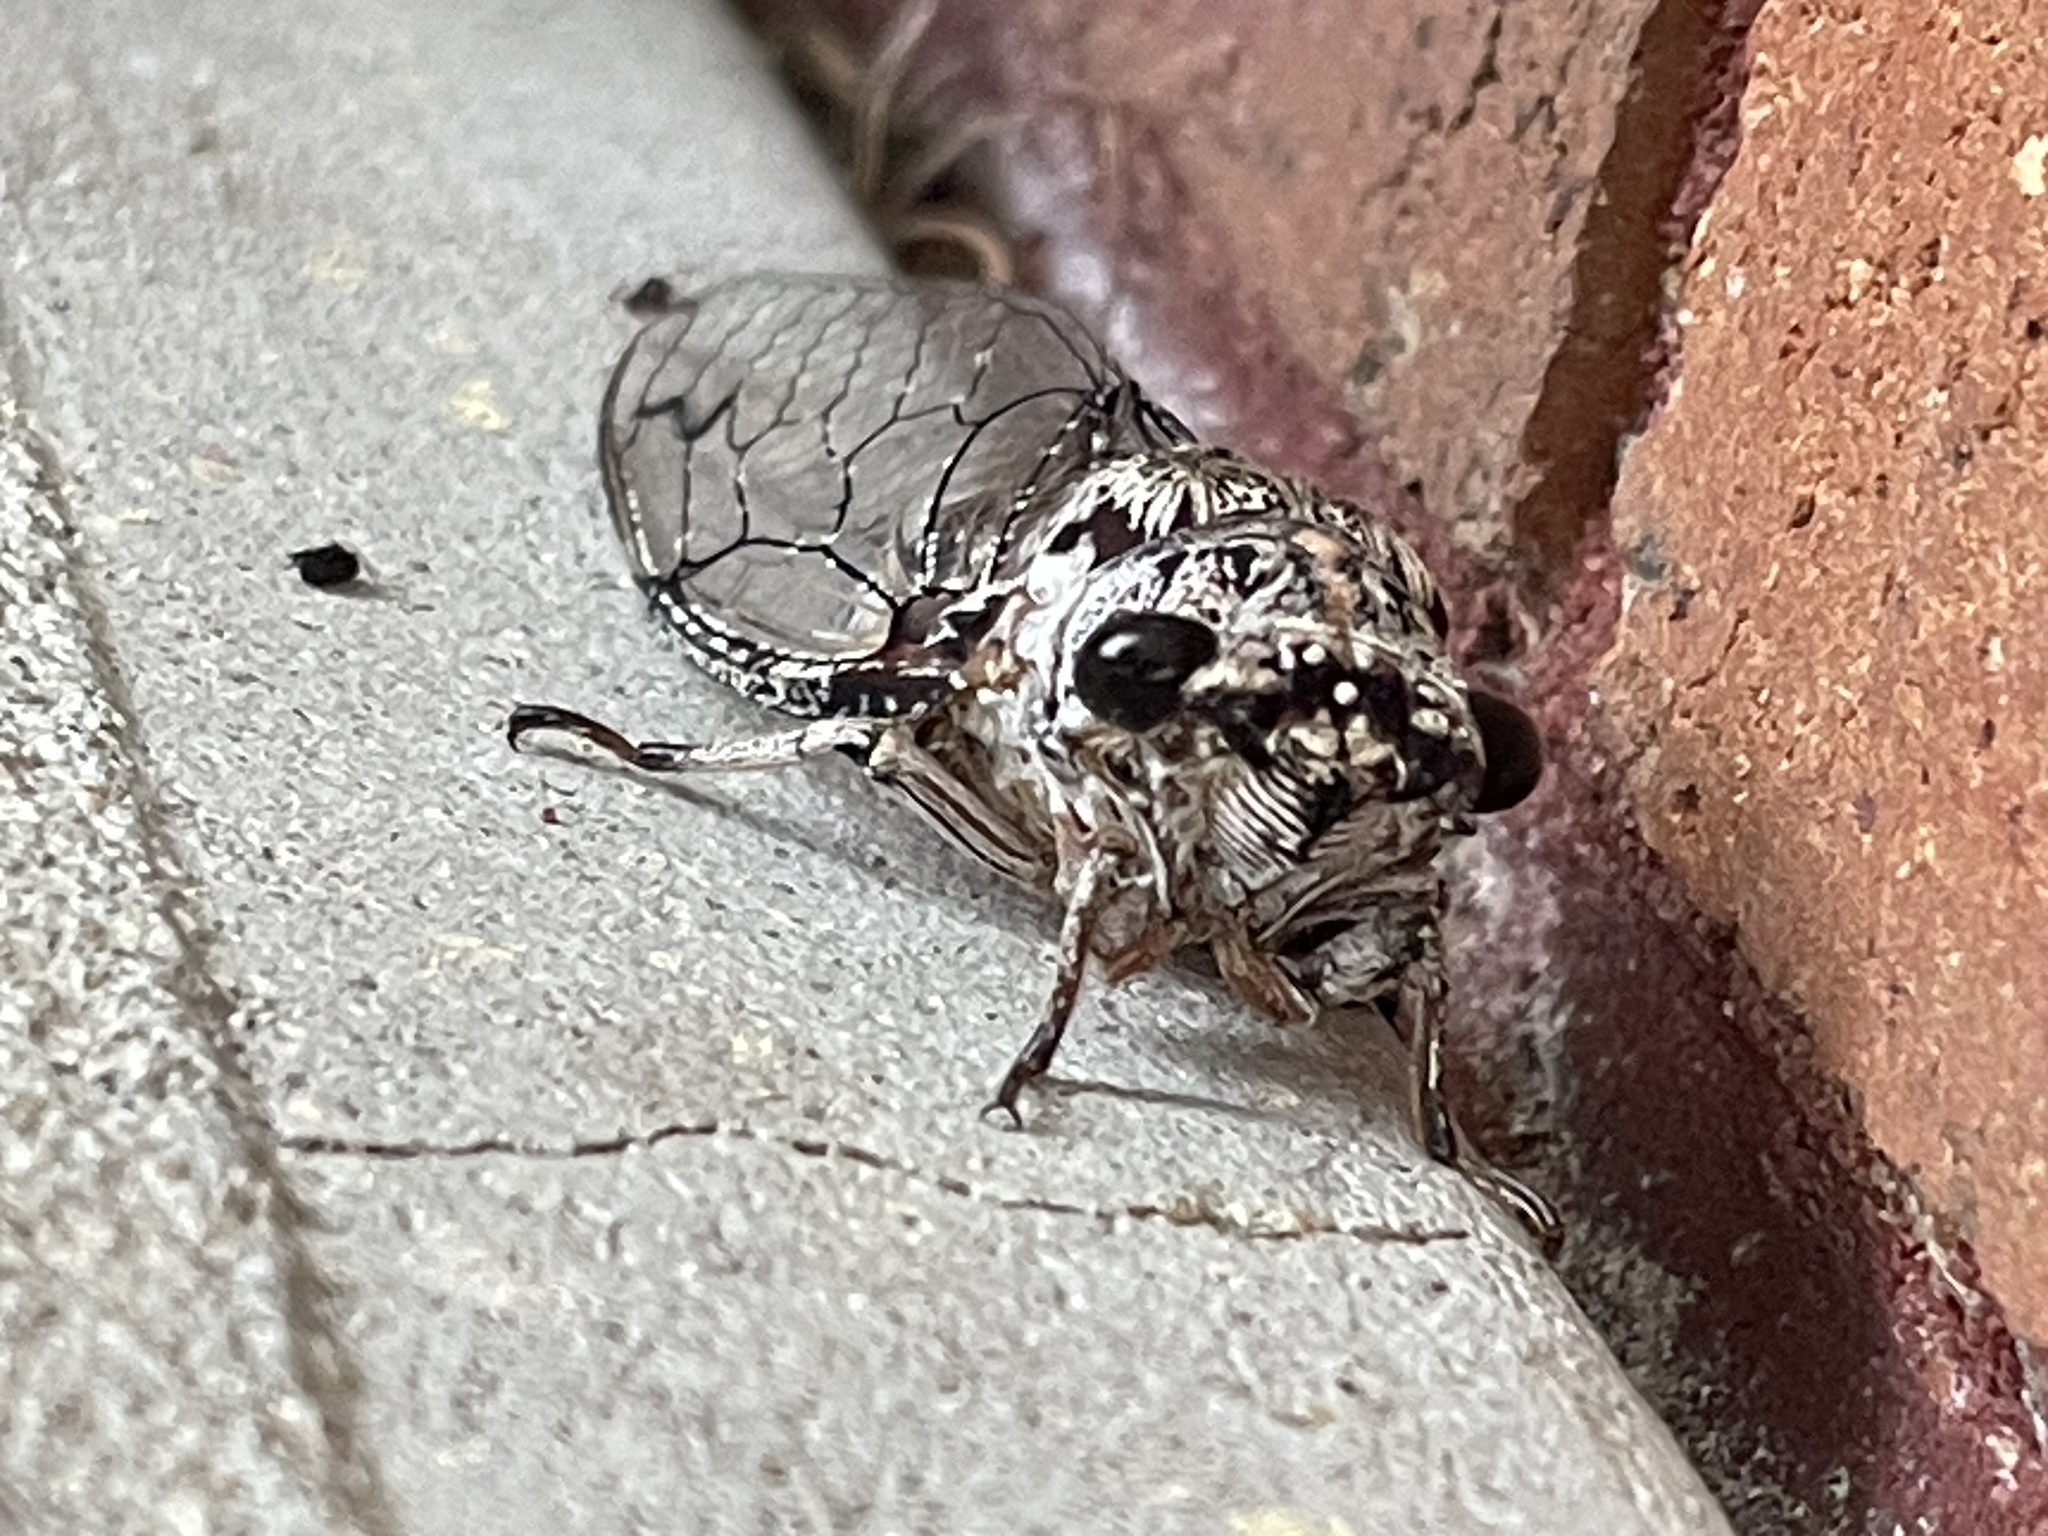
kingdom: Animalia
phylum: Arthropoda
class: Insecta
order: Hemiptera
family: Cicadidae
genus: Aleeta
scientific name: Aleeta curvicosta
